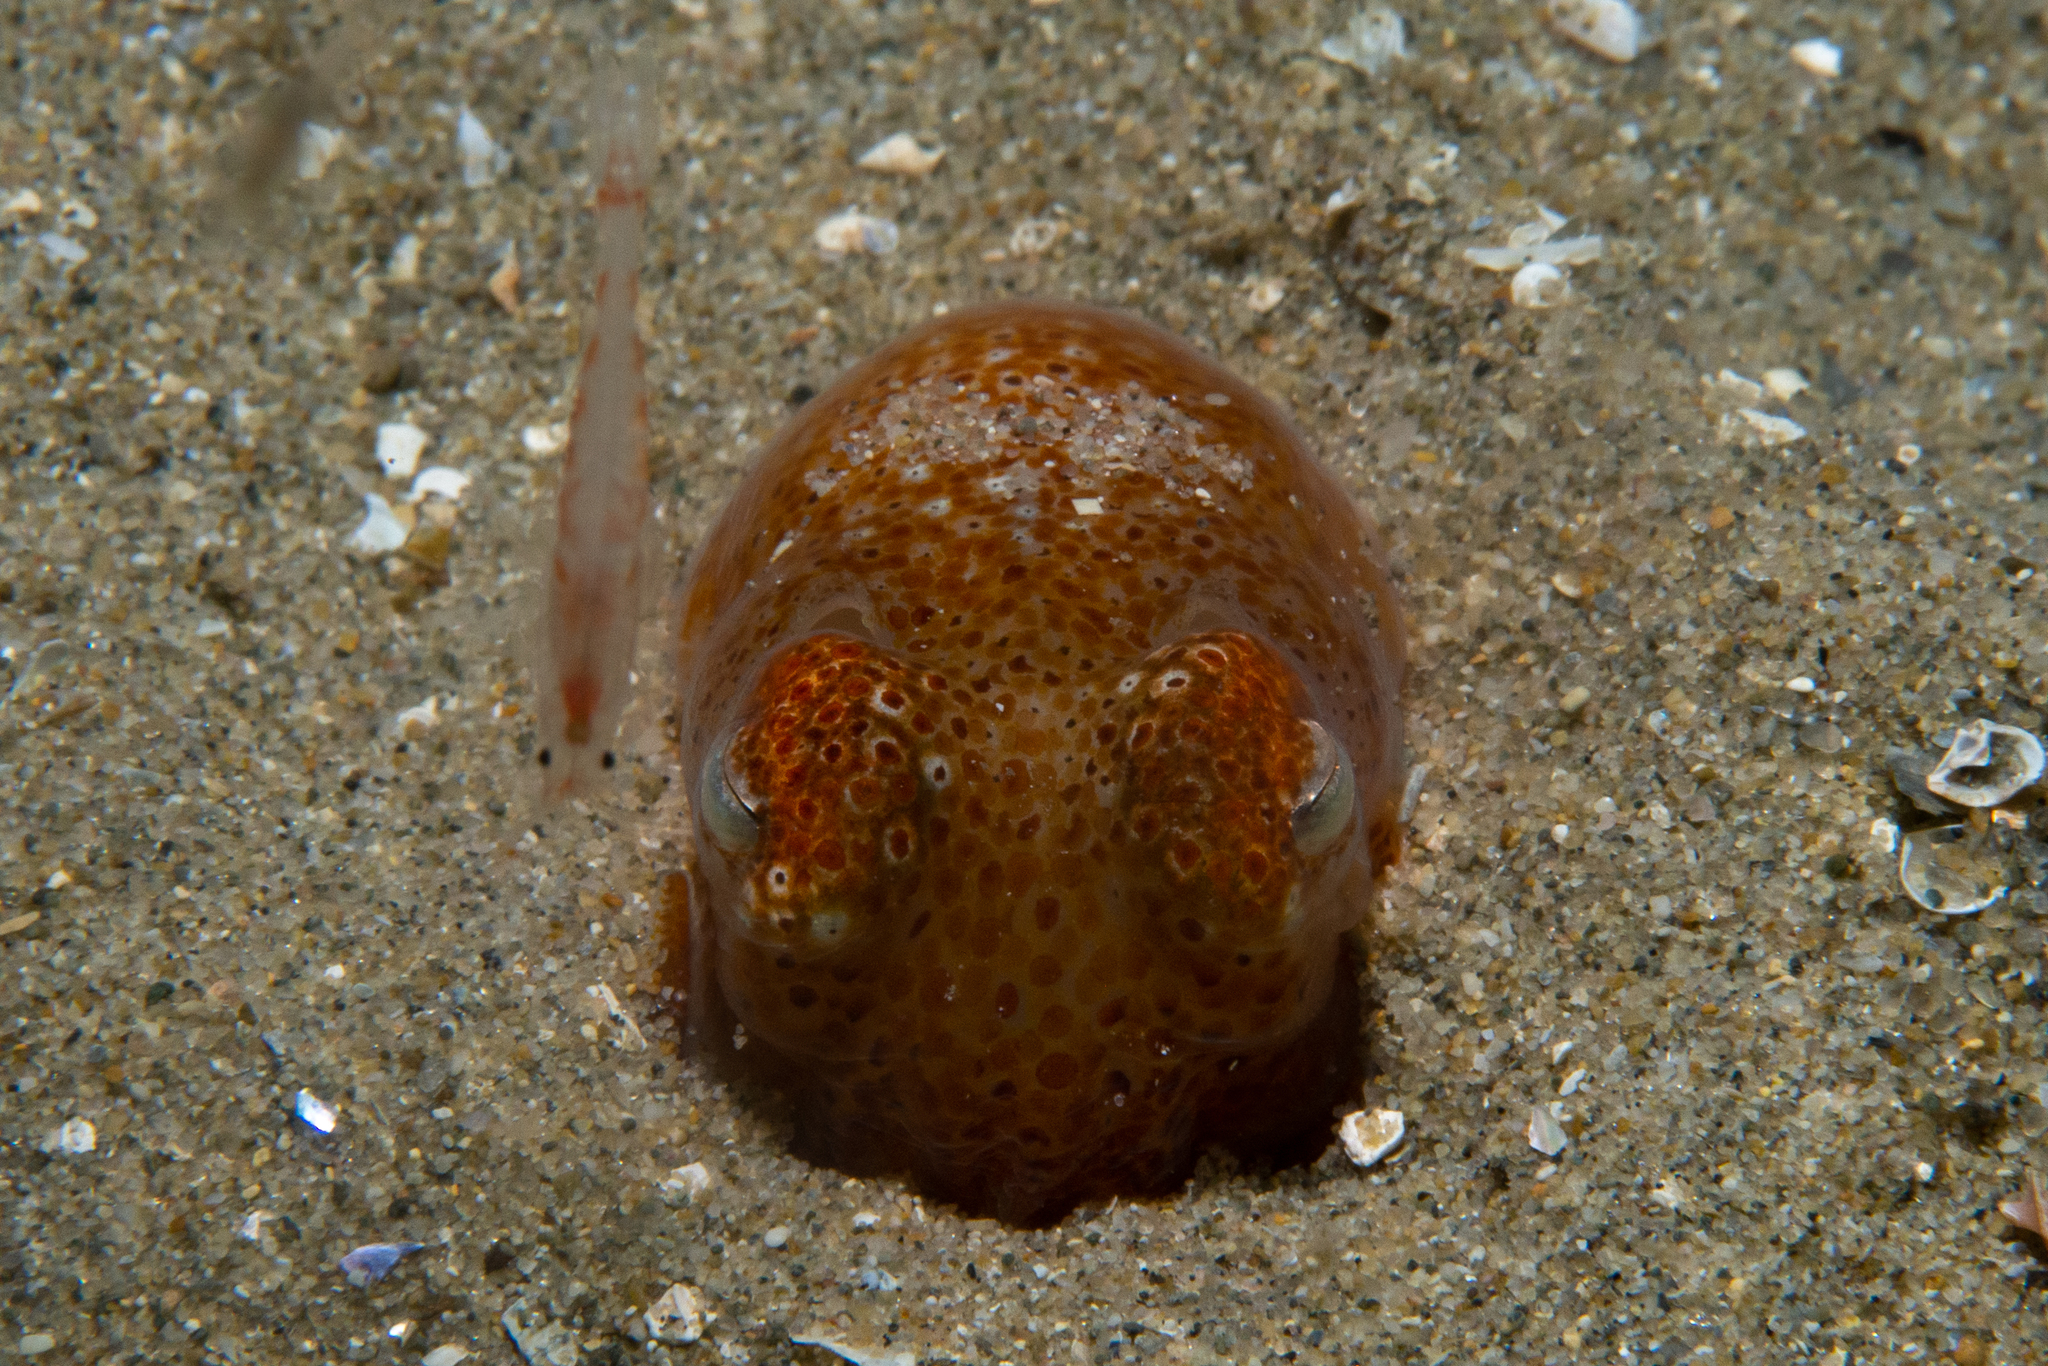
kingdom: Animalia
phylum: Mollusca
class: Cephalopoda
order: Sepiida
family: Sepiadariidae
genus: Sepiadarium
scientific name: Sepiadarium austrinum
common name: Southern bottletail squid
